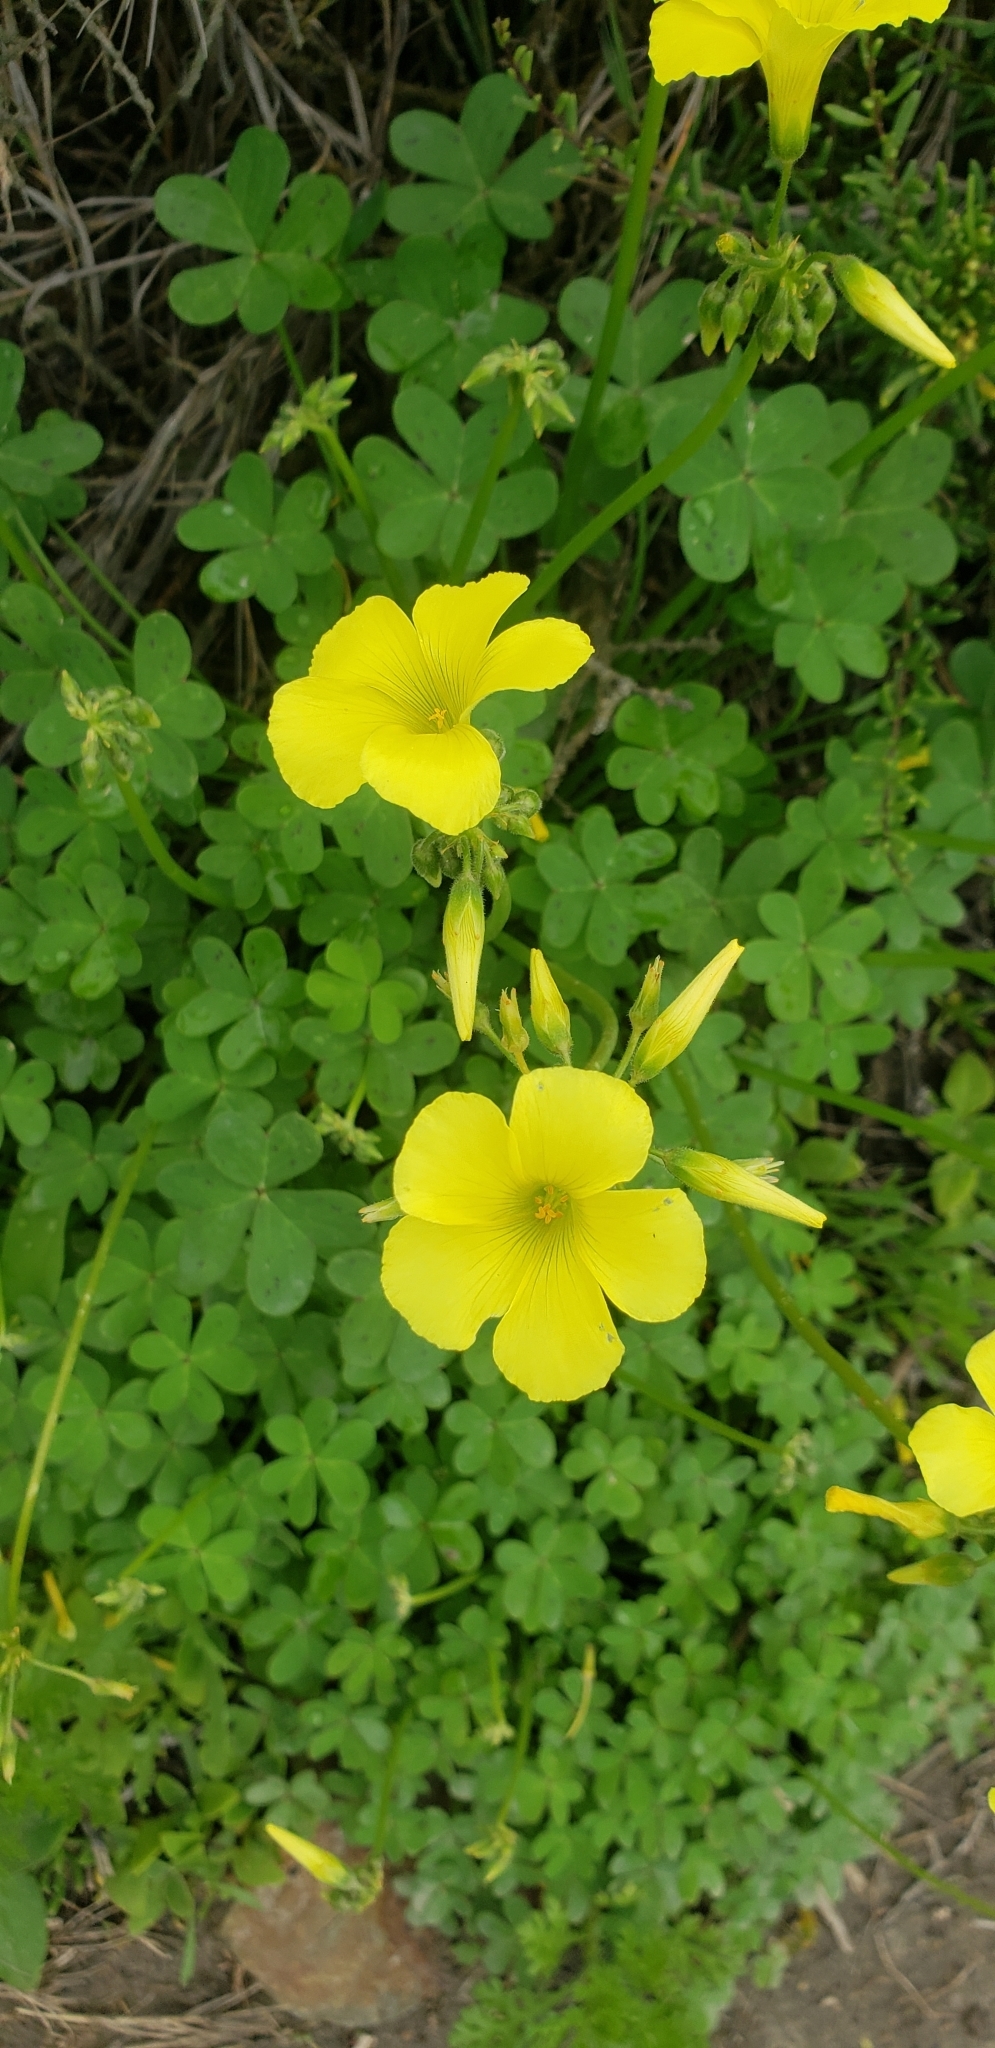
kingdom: Plantae
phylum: Tracheophyta
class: Magnoliopsida
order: Oxalidales
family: Oxalidaceae
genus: Oxalis
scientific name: Oxalis pes-caprae
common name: Bermuda-buttercup
